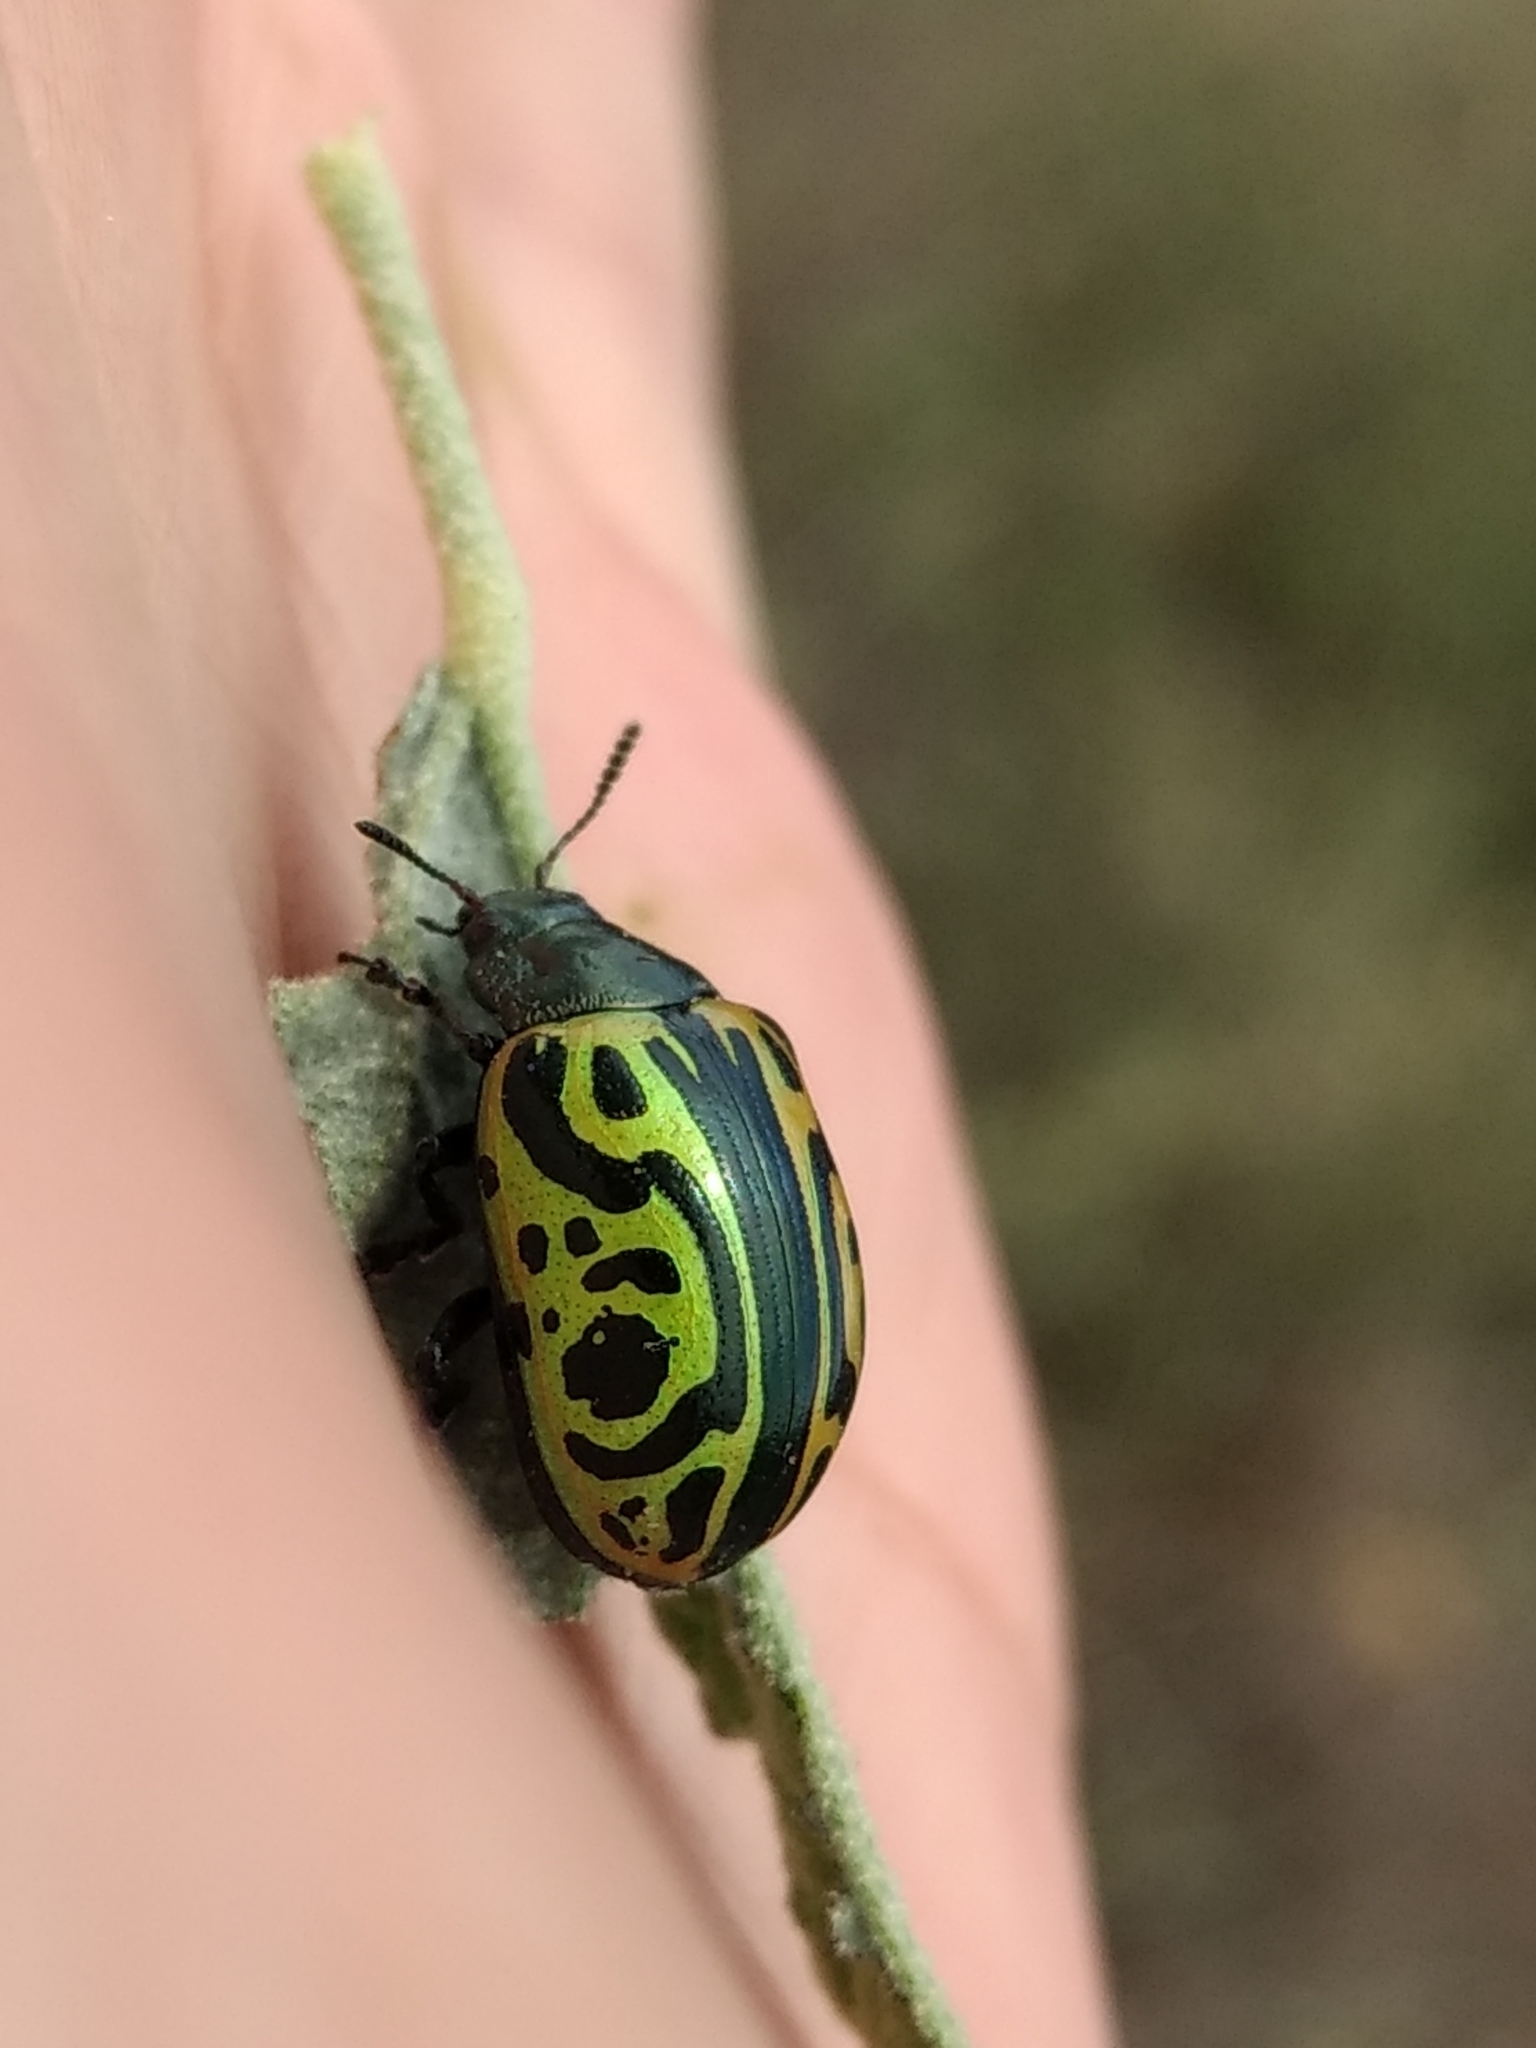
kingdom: Animalia
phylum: Arthropoda
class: Insecta
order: Coleoptera
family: Chrysomelidae
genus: Calligrapha
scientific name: Calligrapha mexicana
